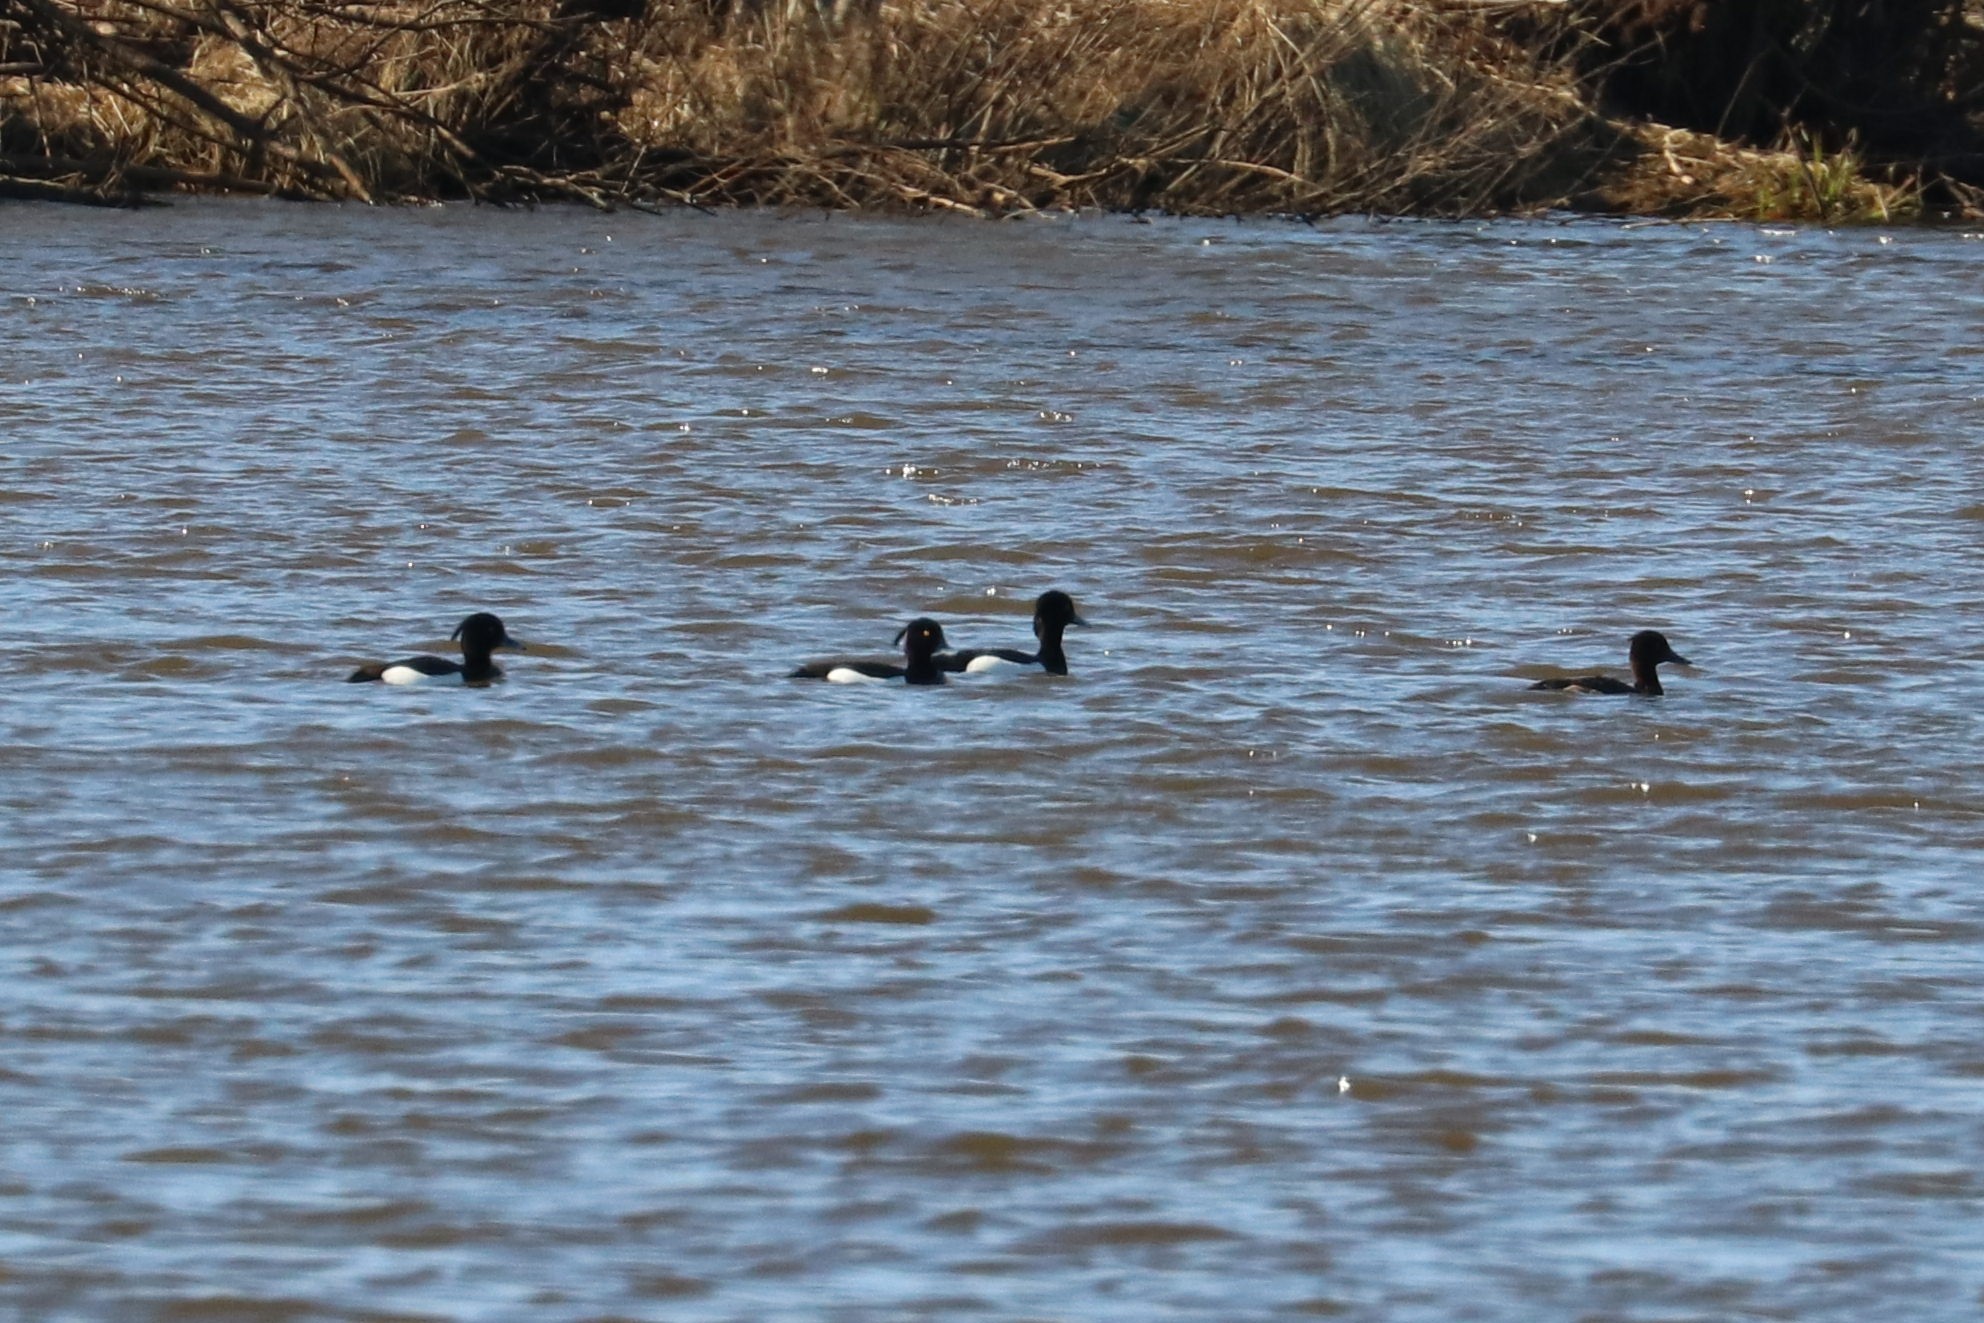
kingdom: Animalia
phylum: Chordata
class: Aves
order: Anseriformes
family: Anatidae
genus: Aythya
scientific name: Aythya fuligula
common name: Tufted duck
